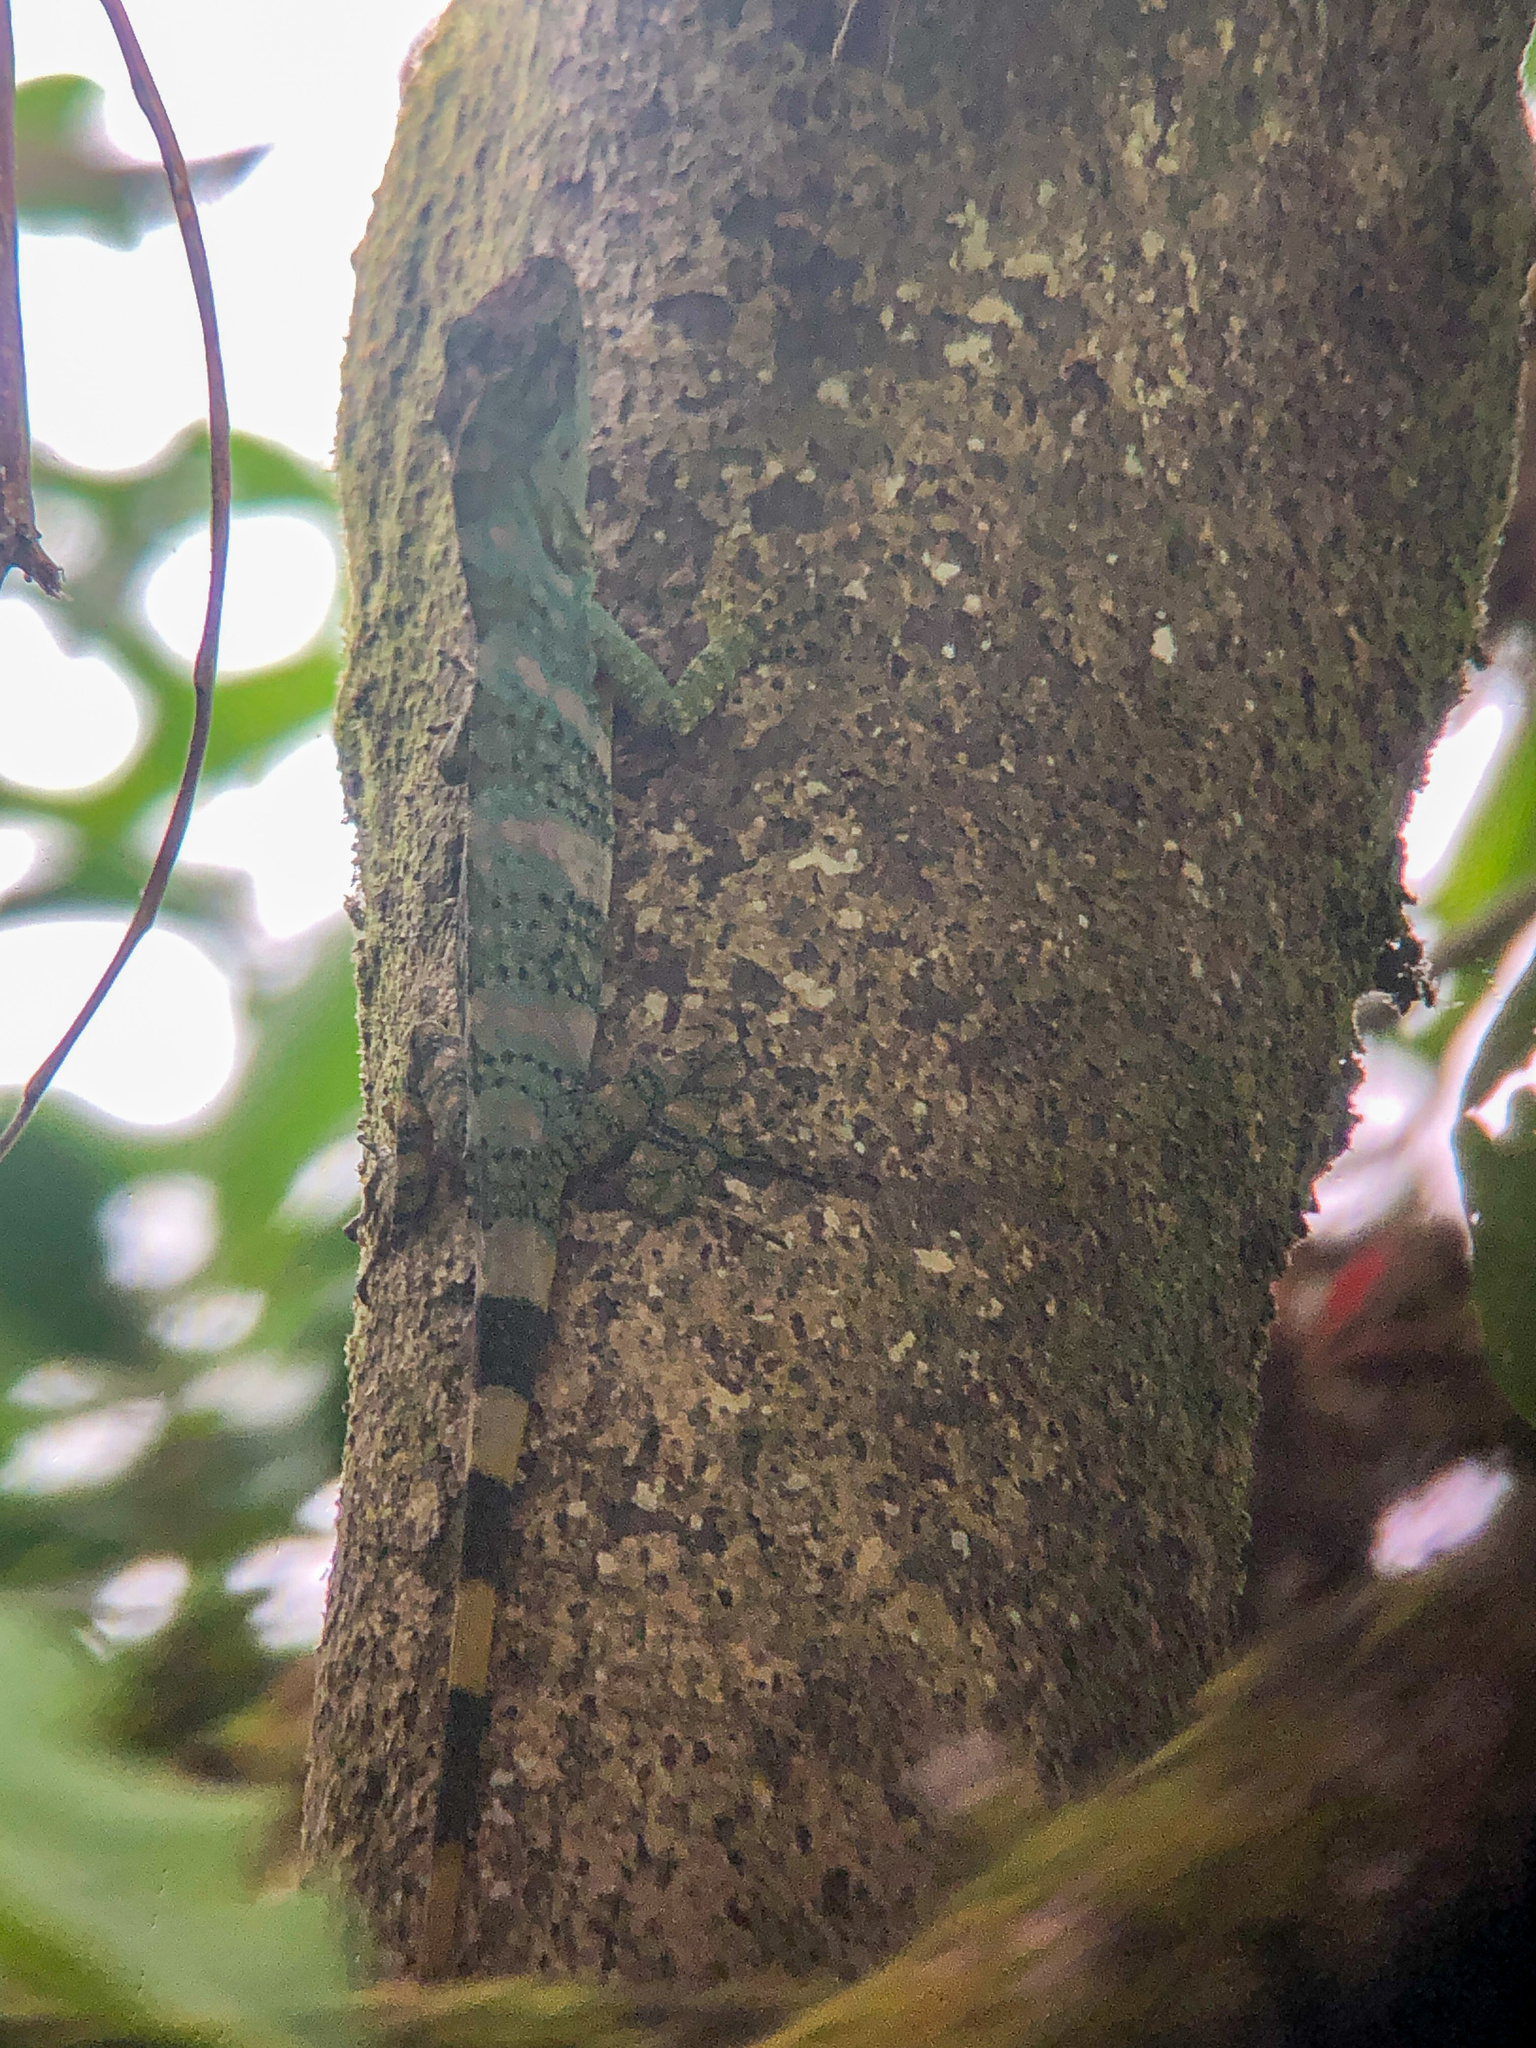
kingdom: Animalia
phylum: Chordata
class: Squamata
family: Dactyloidae
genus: Anolis
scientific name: Anolis kathydayae
